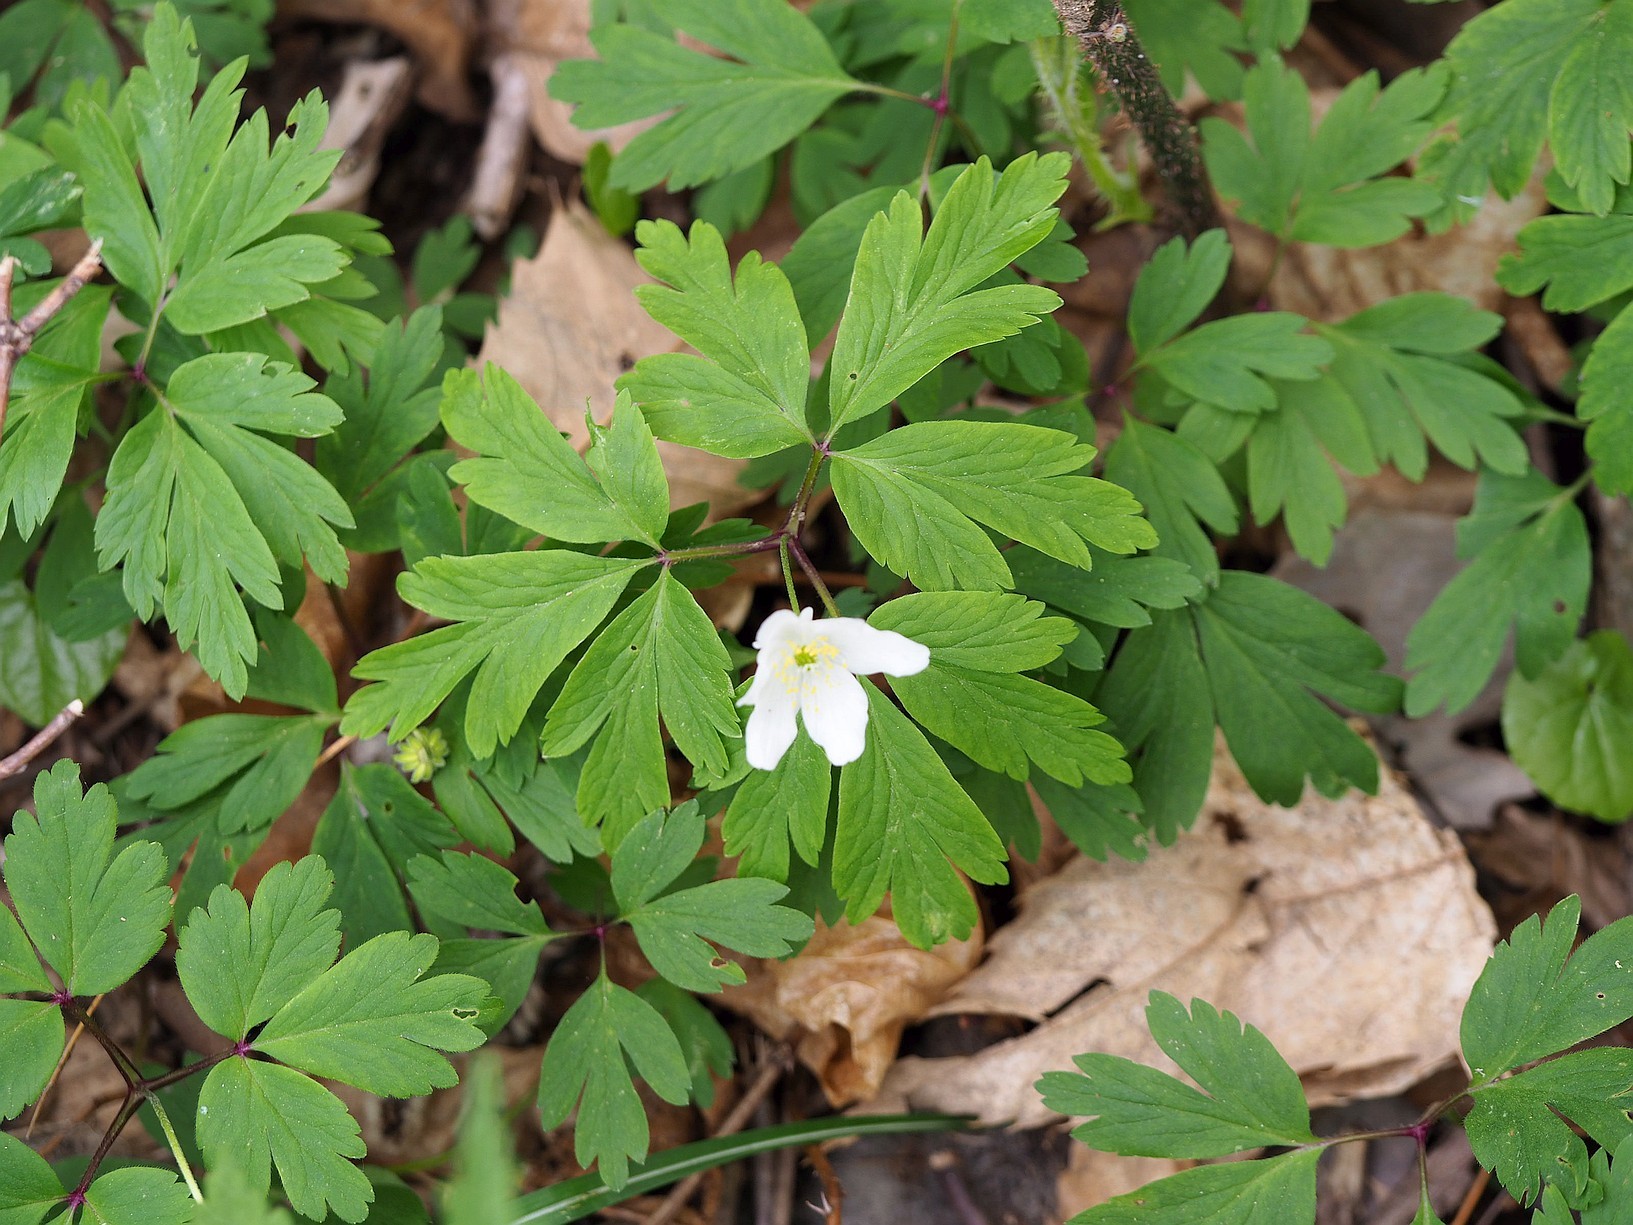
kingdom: Plantae
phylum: Tracheophyta
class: Magnoliopsida
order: Ranunculales
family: Ranunculaceae
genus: Anemone
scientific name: Anemone nemorosa
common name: Wood anemone
